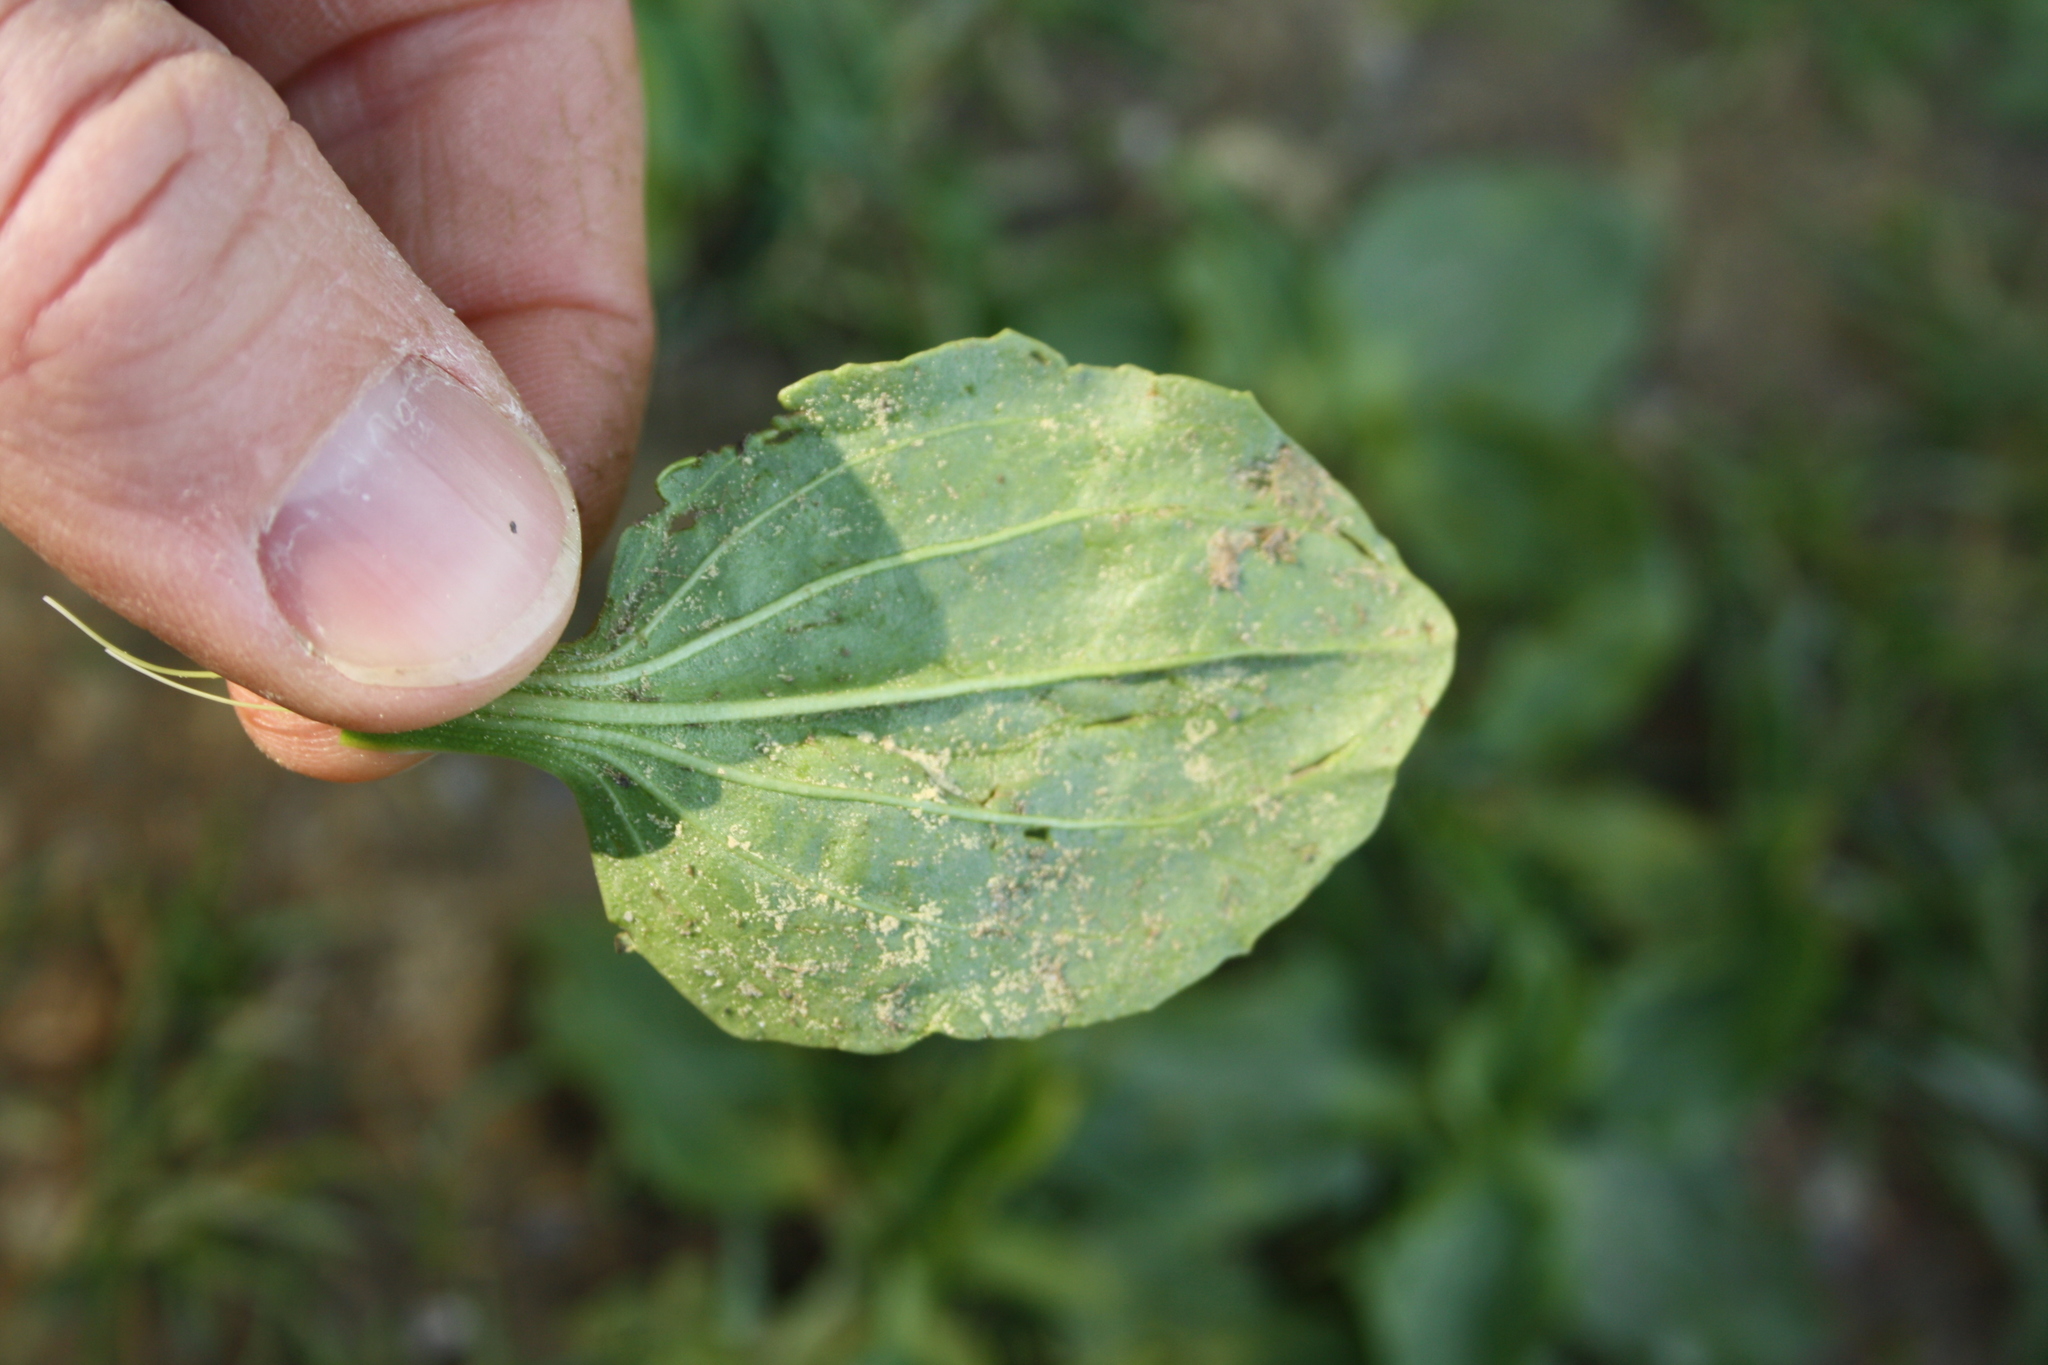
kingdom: Plantae
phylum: Tracheophyta
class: Magnoliopsida
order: Lamiales
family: Plantaginaceae
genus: Plantago
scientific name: Plantago major
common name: Common plantain
